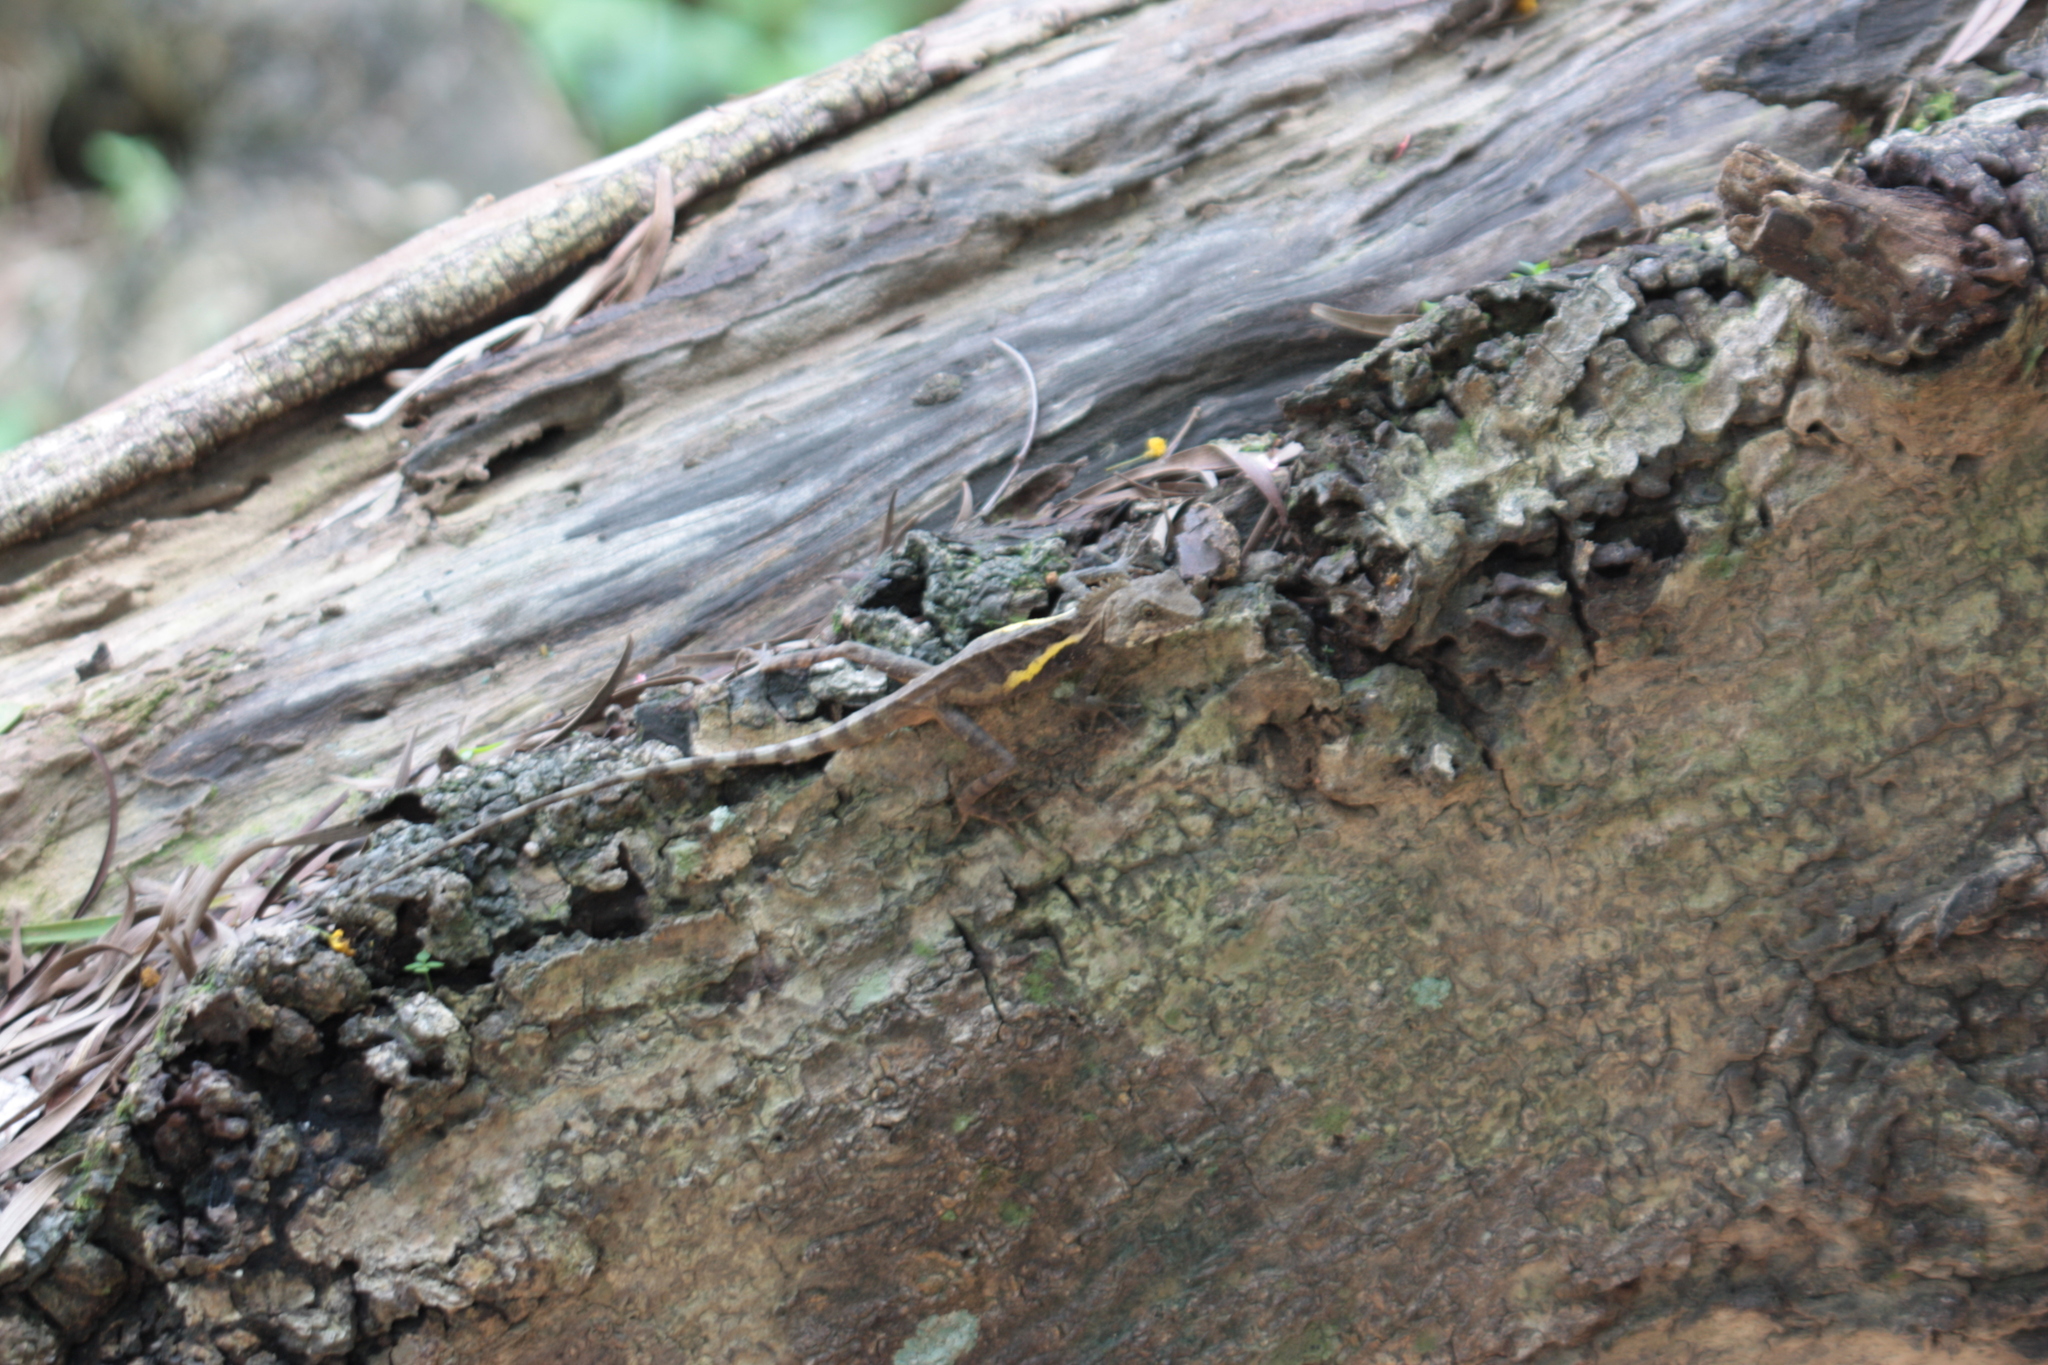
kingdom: Animalia
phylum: Chordata
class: Squamata
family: Agamidae
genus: Diploderma
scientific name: Diploderma swinhonis
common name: Taiwan japalure
